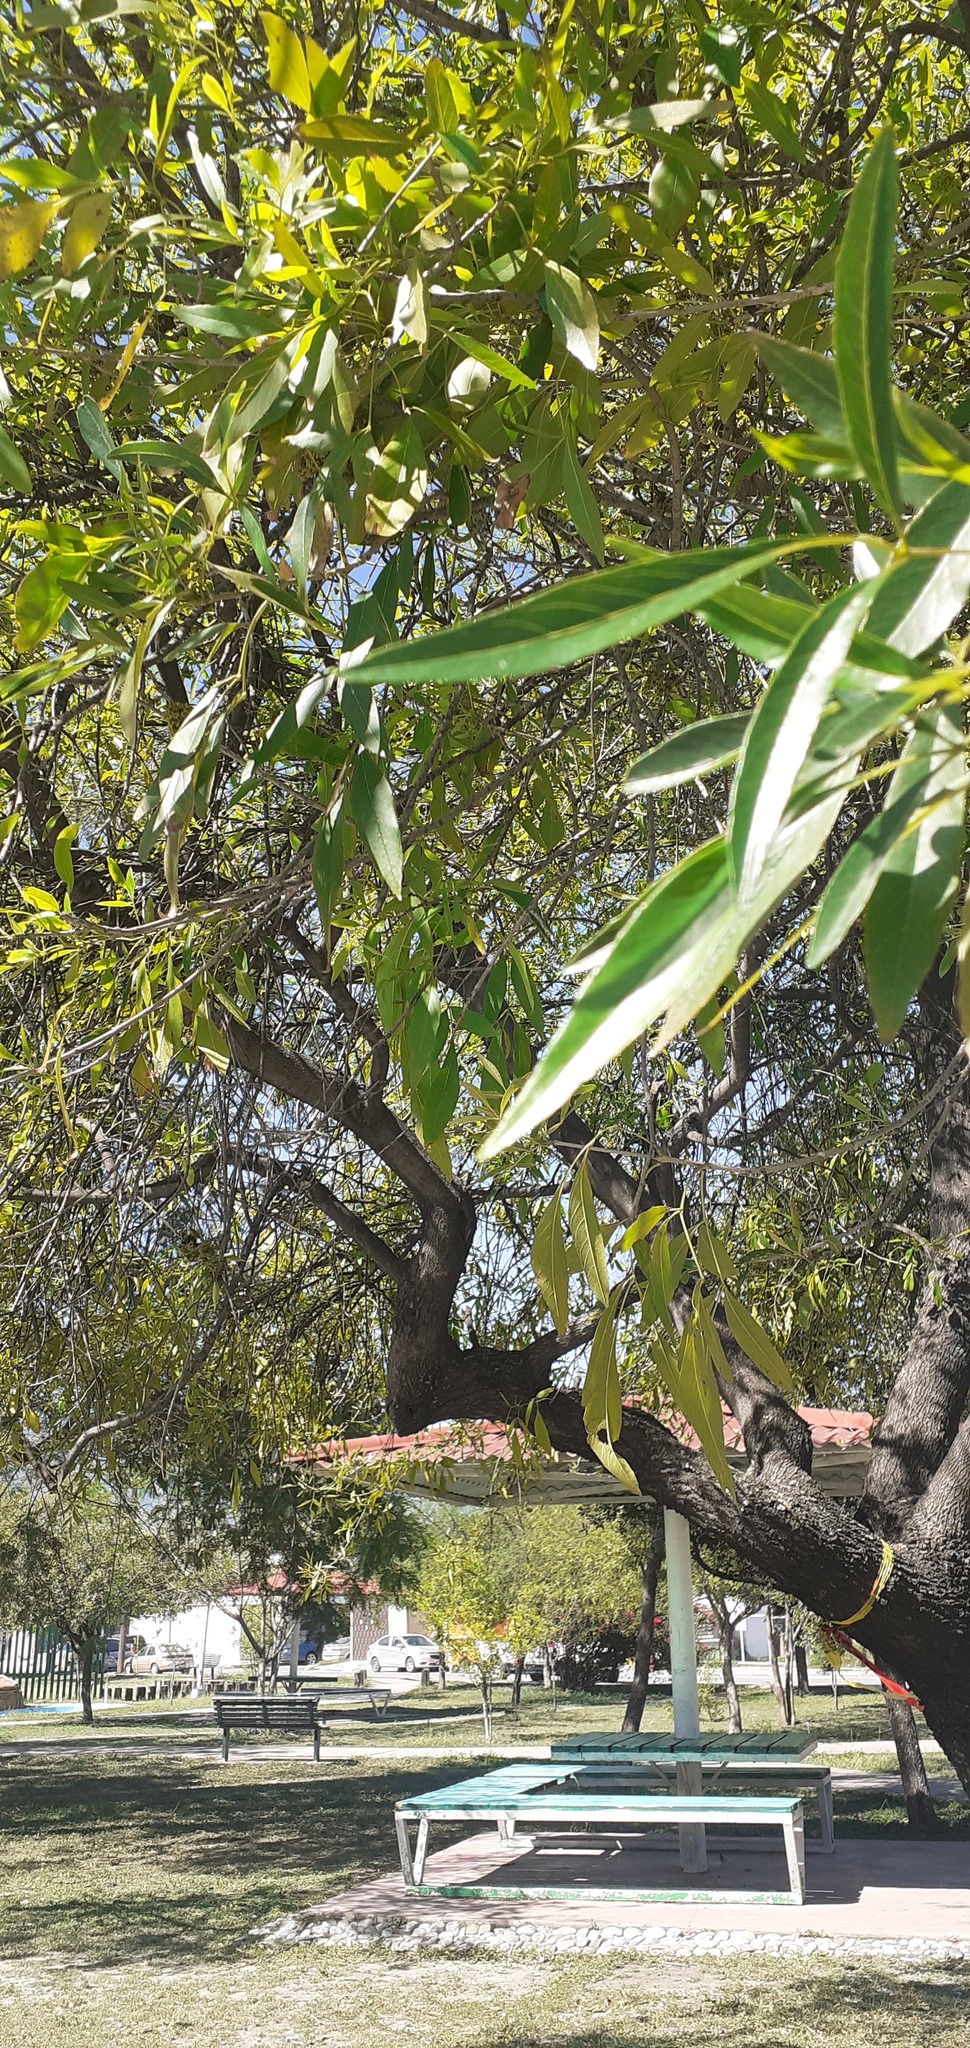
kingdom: Plantae
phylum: Tracheophyta
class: Magnoliopsida
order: Lamiales
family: Oleaceae
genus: Fraxinus
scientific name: Fraxinus berlandieriana
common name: Berlandier ash
